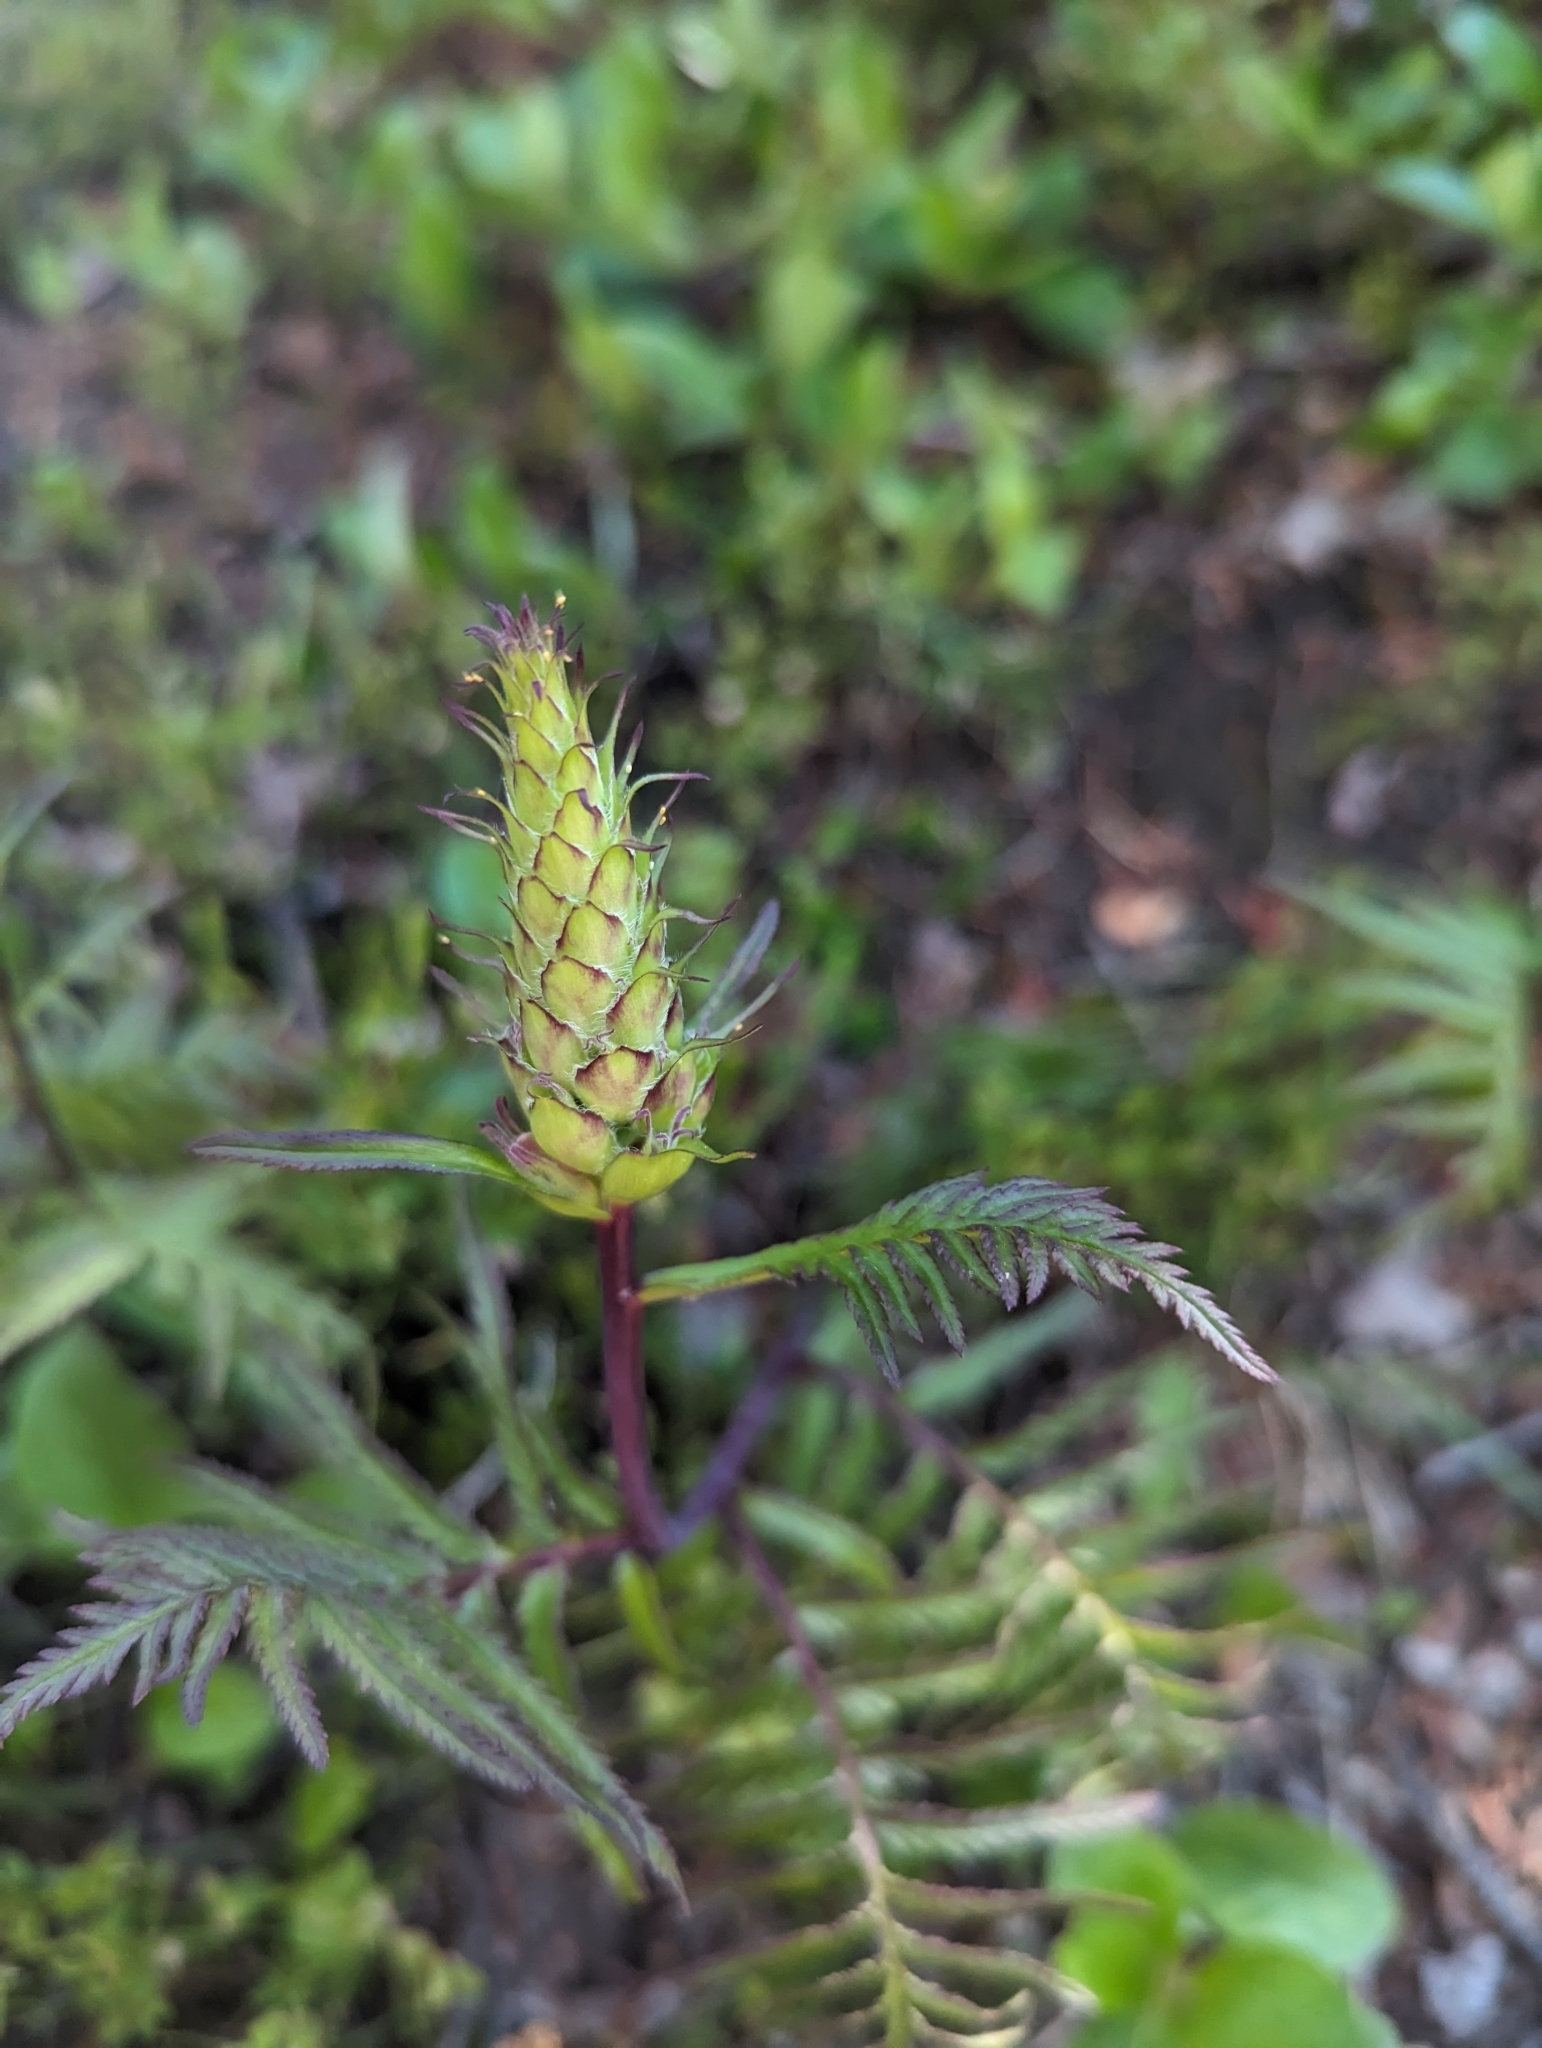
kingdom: Plantae
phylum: Tracheophyta
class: Magnoliopsida
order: Lamiales
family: Orobanchaceae
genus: Pedicularis
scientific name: Pedicularis bracteosa
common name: Bracted lousewort
